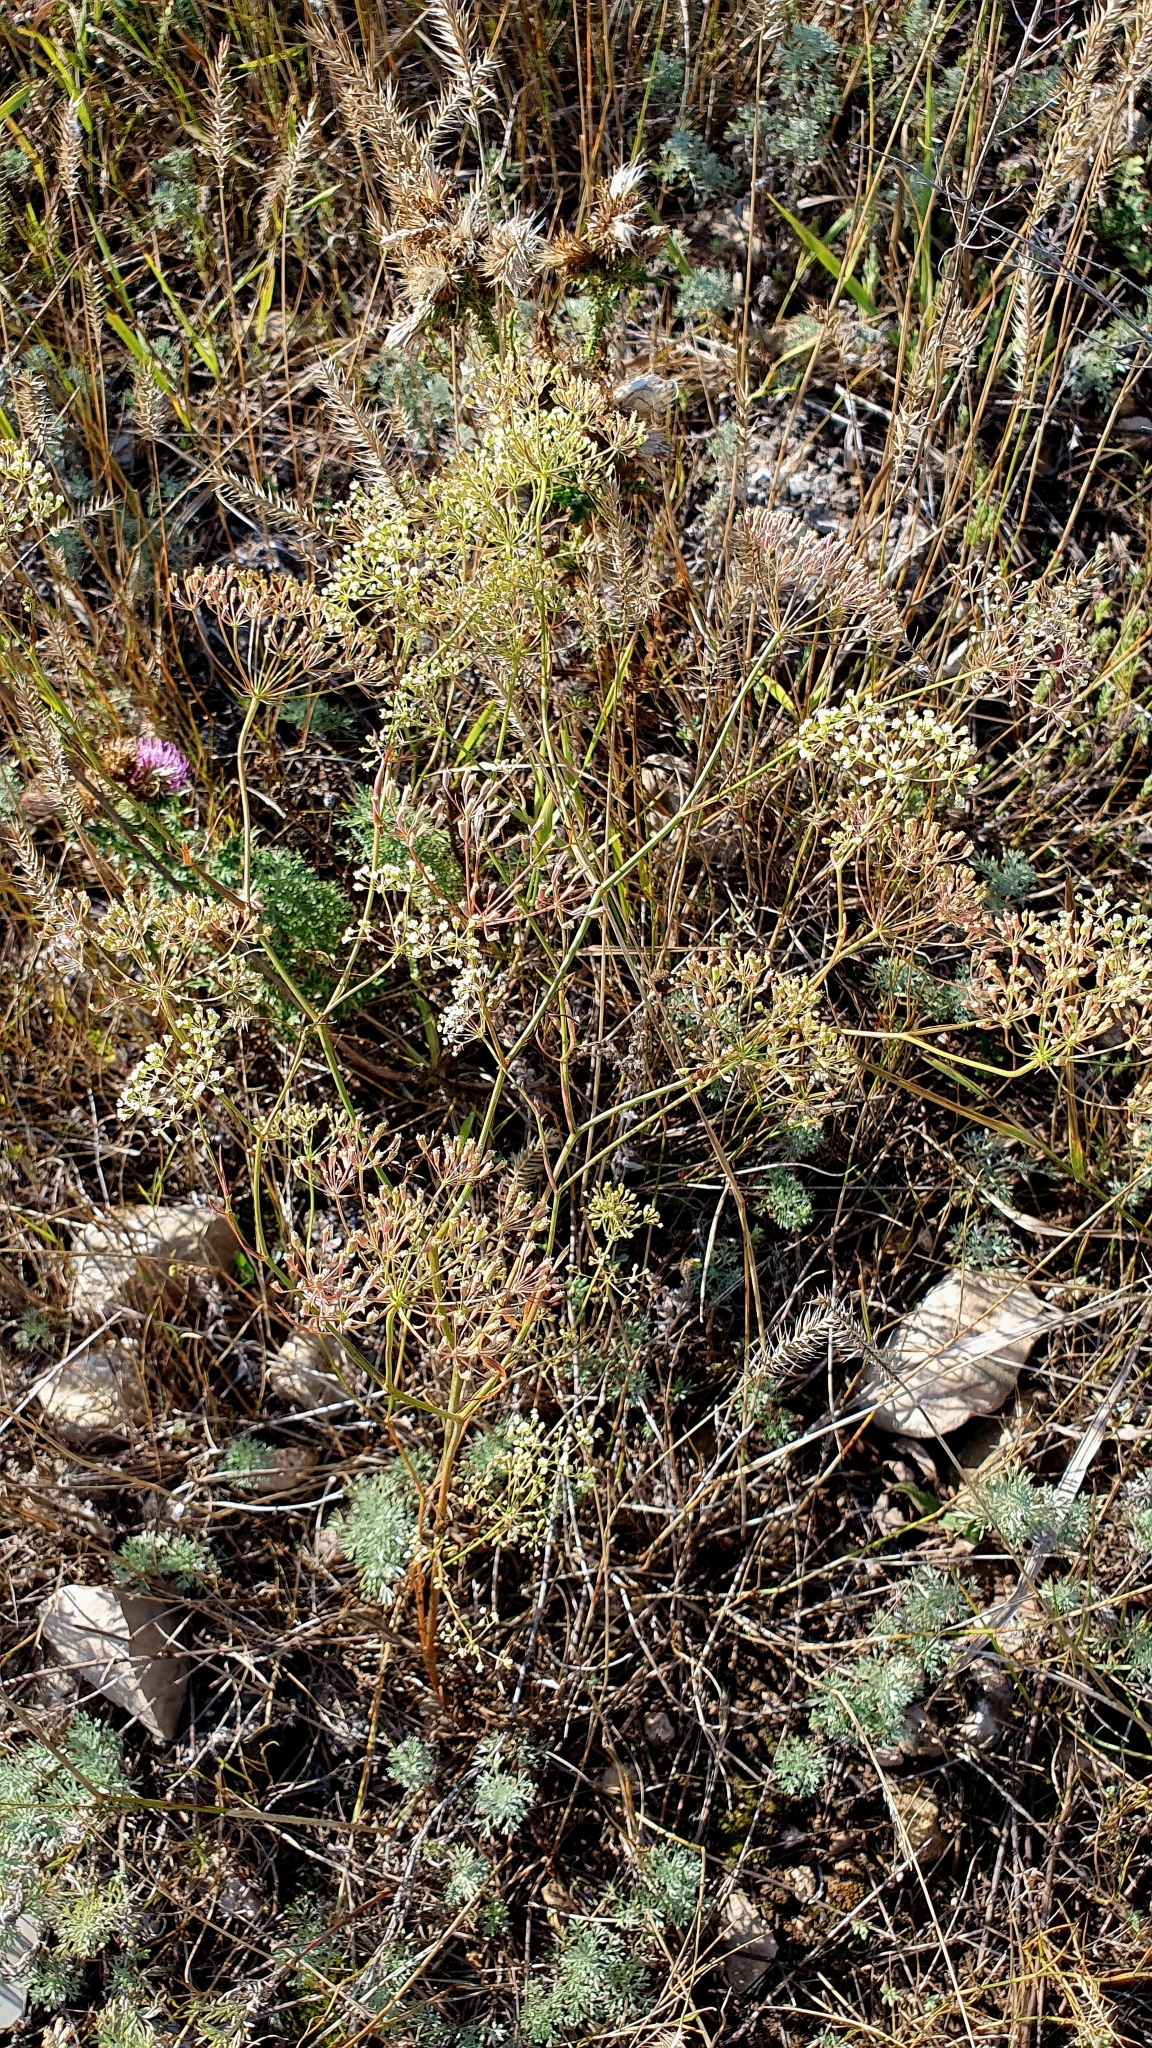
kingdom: Plantae
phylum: Tracheophyta
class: Magnoliopsida
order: Apiales
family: Apiaceae
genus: Falcaria
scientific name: Falcaria vulgaris
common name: Longleaf
